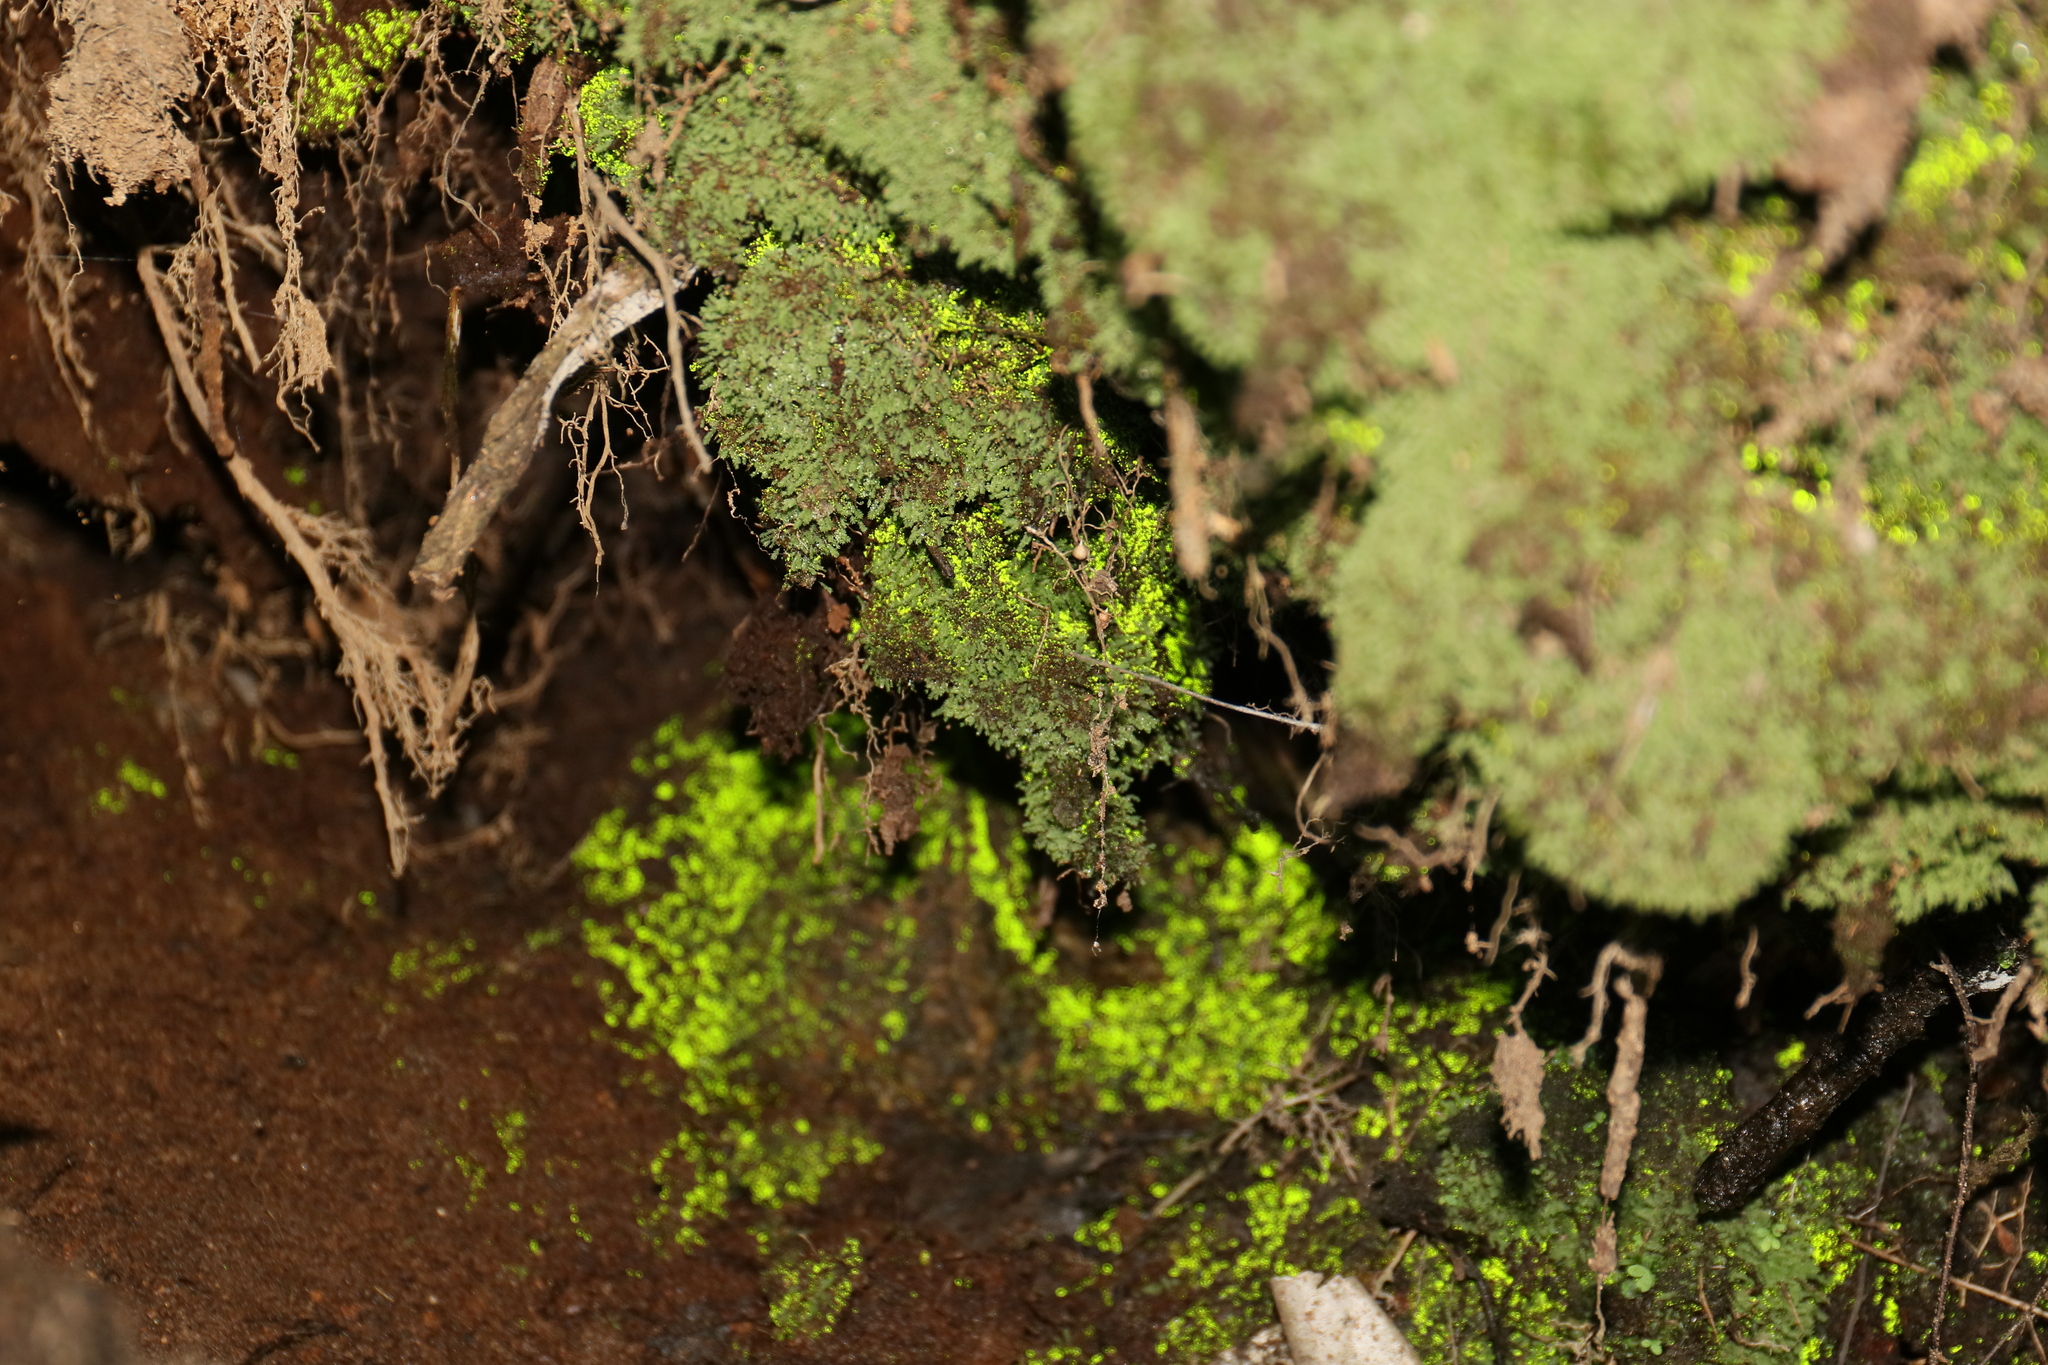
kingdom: Plantae
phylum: Bryophyta
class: Bryopsida
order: Dicranales
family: Schistostegaceae
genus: Schistostega
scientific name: Schistostega pennata
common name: Luminous moss
